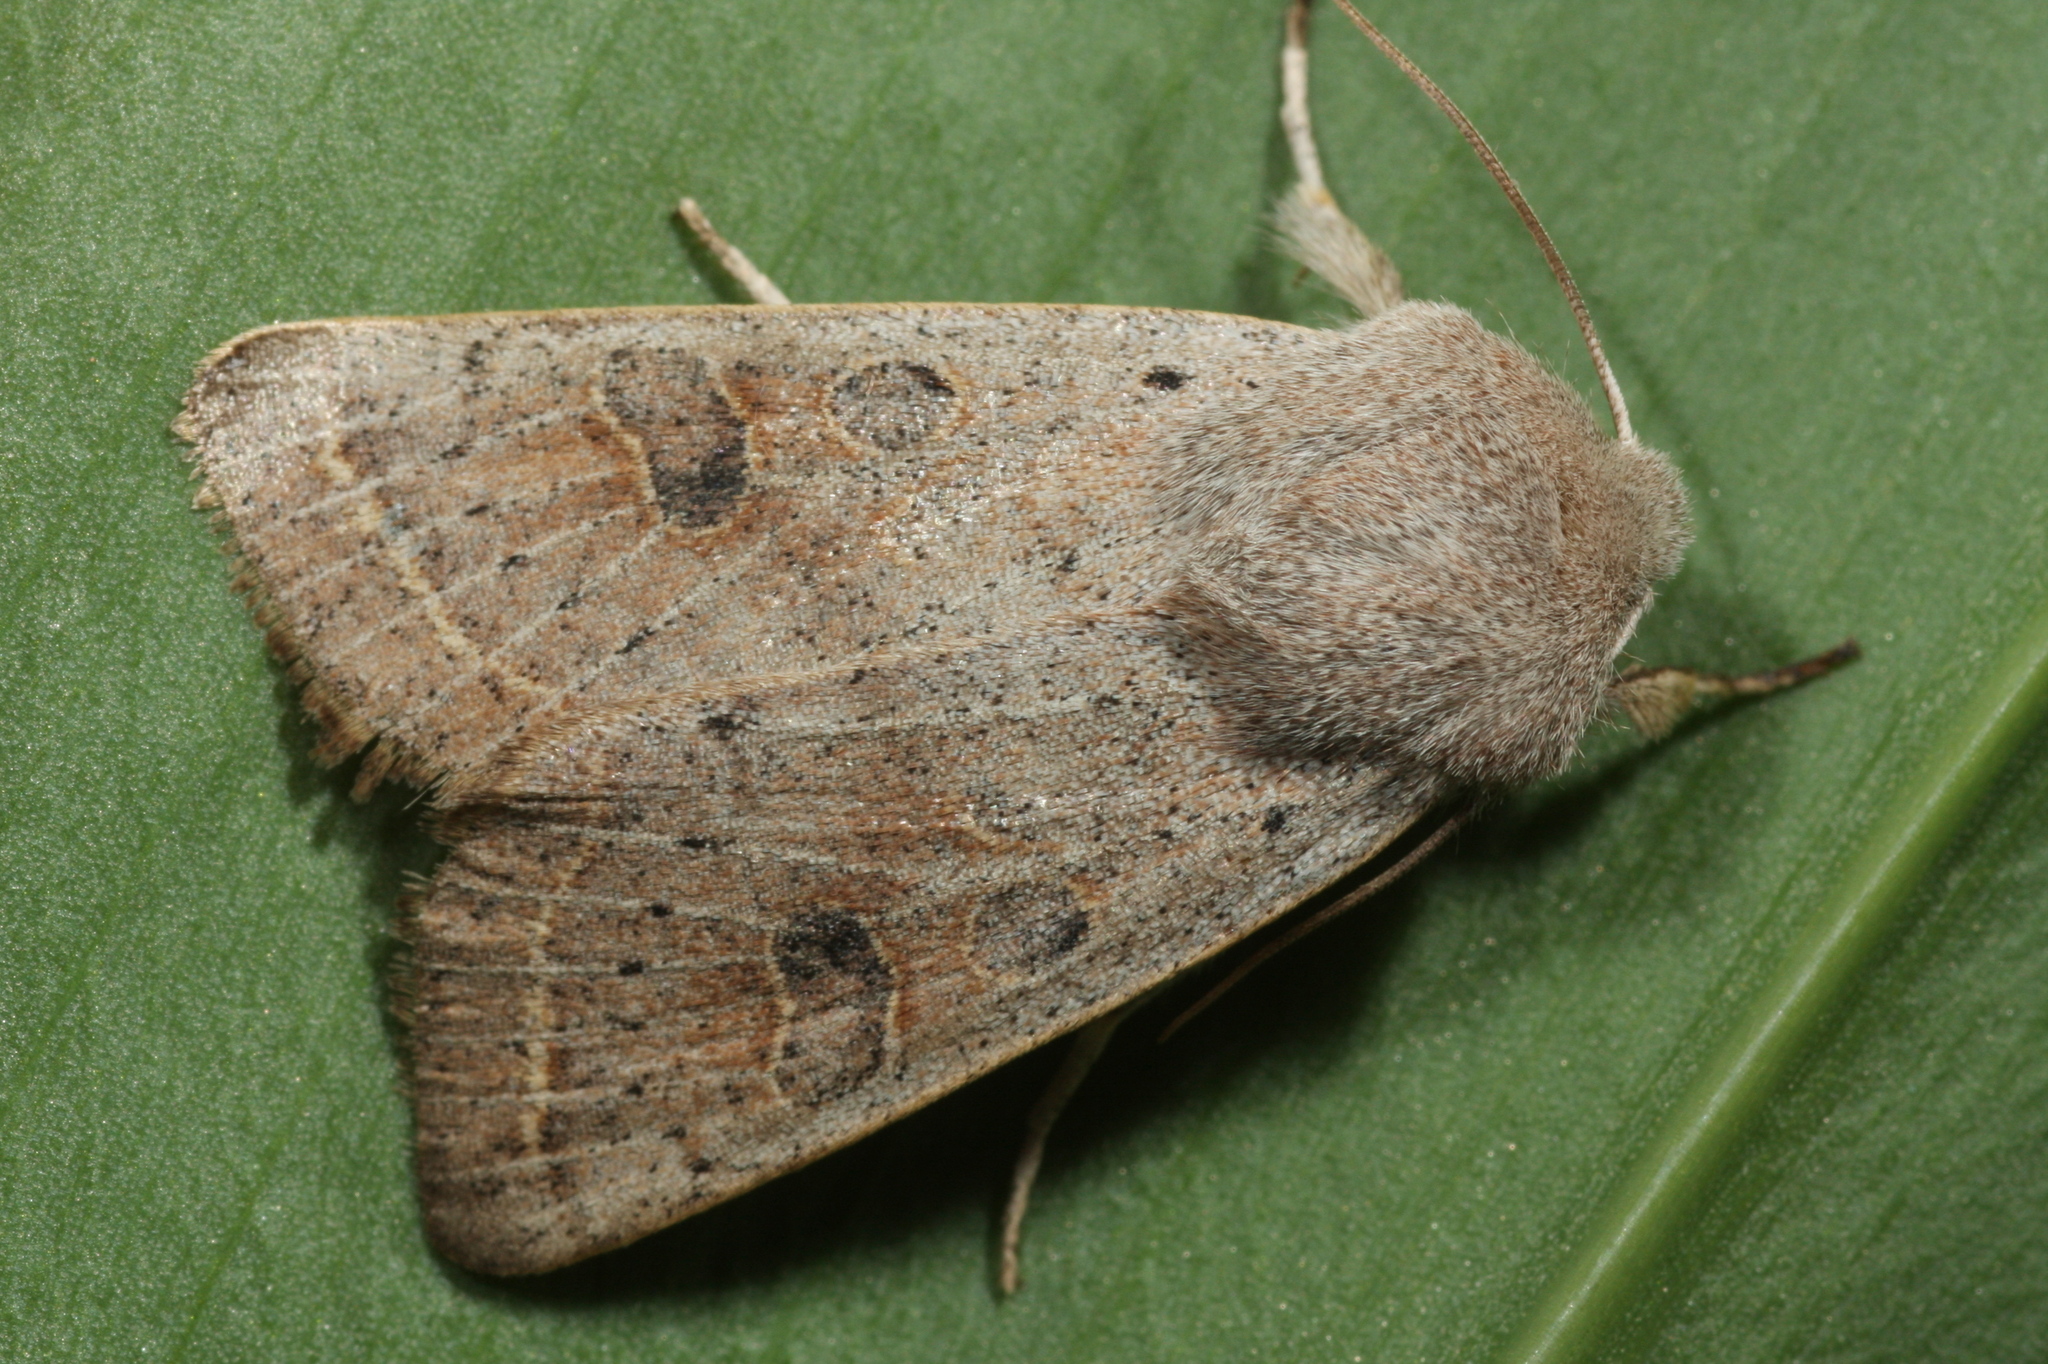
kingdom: Animalia
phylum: Arthropoda
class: Insecta
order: Lepidoptera
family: Noctuidae
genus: Orthosia
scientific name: Orthosia gracilis
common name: Powdered quaker
